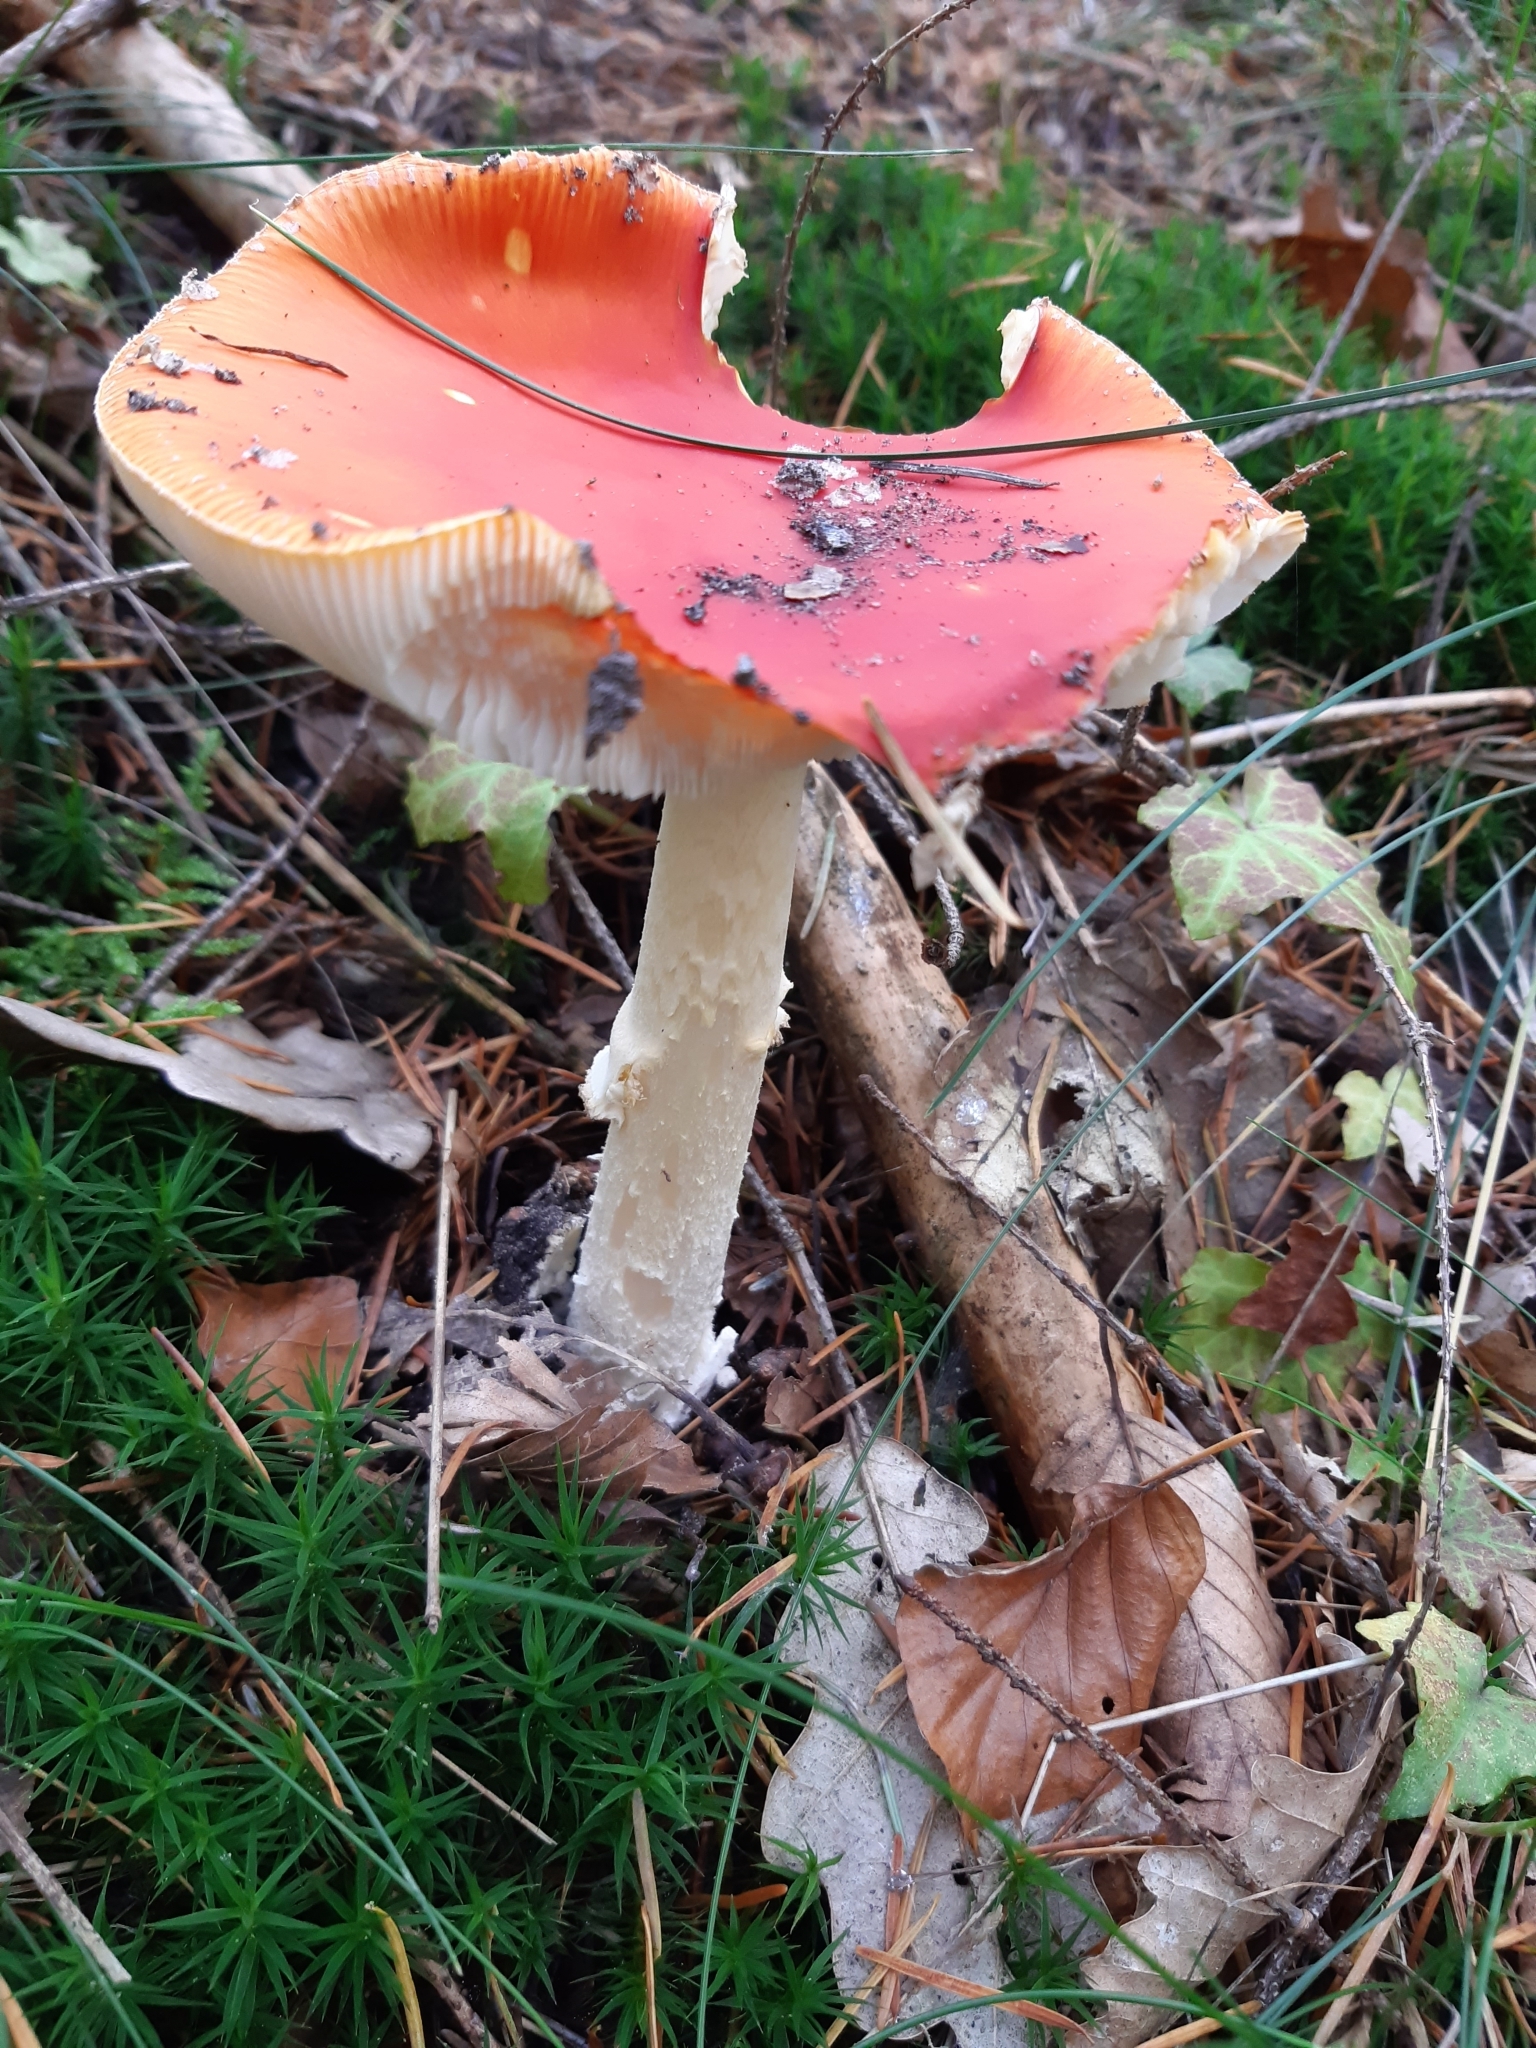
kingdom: Fungi
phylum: Basidiomycota
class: Agaricomycetes
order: Agaricales
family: Amanitaceae
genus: Amanita
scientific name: Amanita muscaria
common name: Fly agaric
